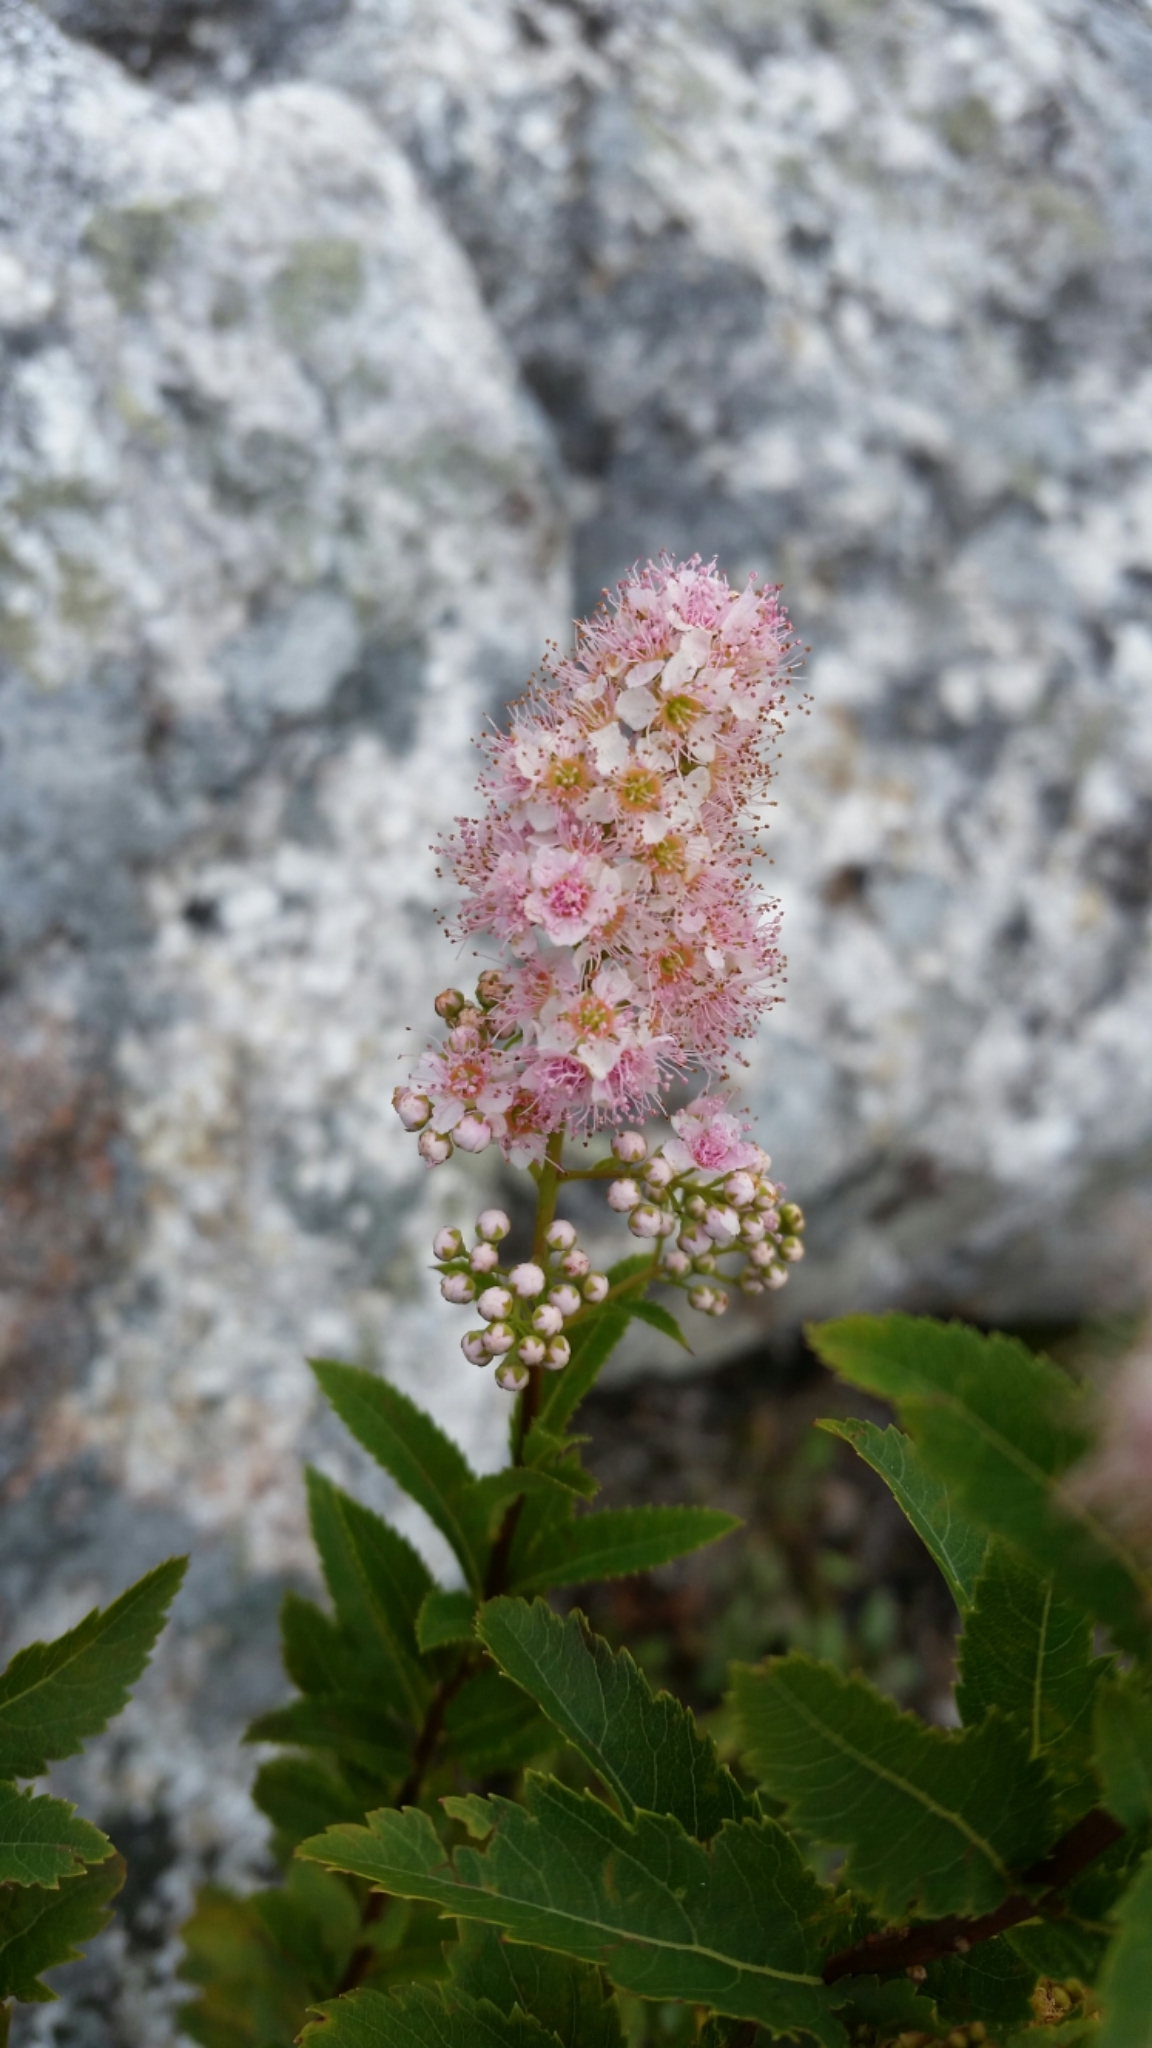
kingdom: Plantae
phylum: Tracheophyta
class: Magnoliopsida
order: Rosales
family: Rosaceae
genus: Spiraea
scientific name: Spiraea alba
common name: Pale bridewort
